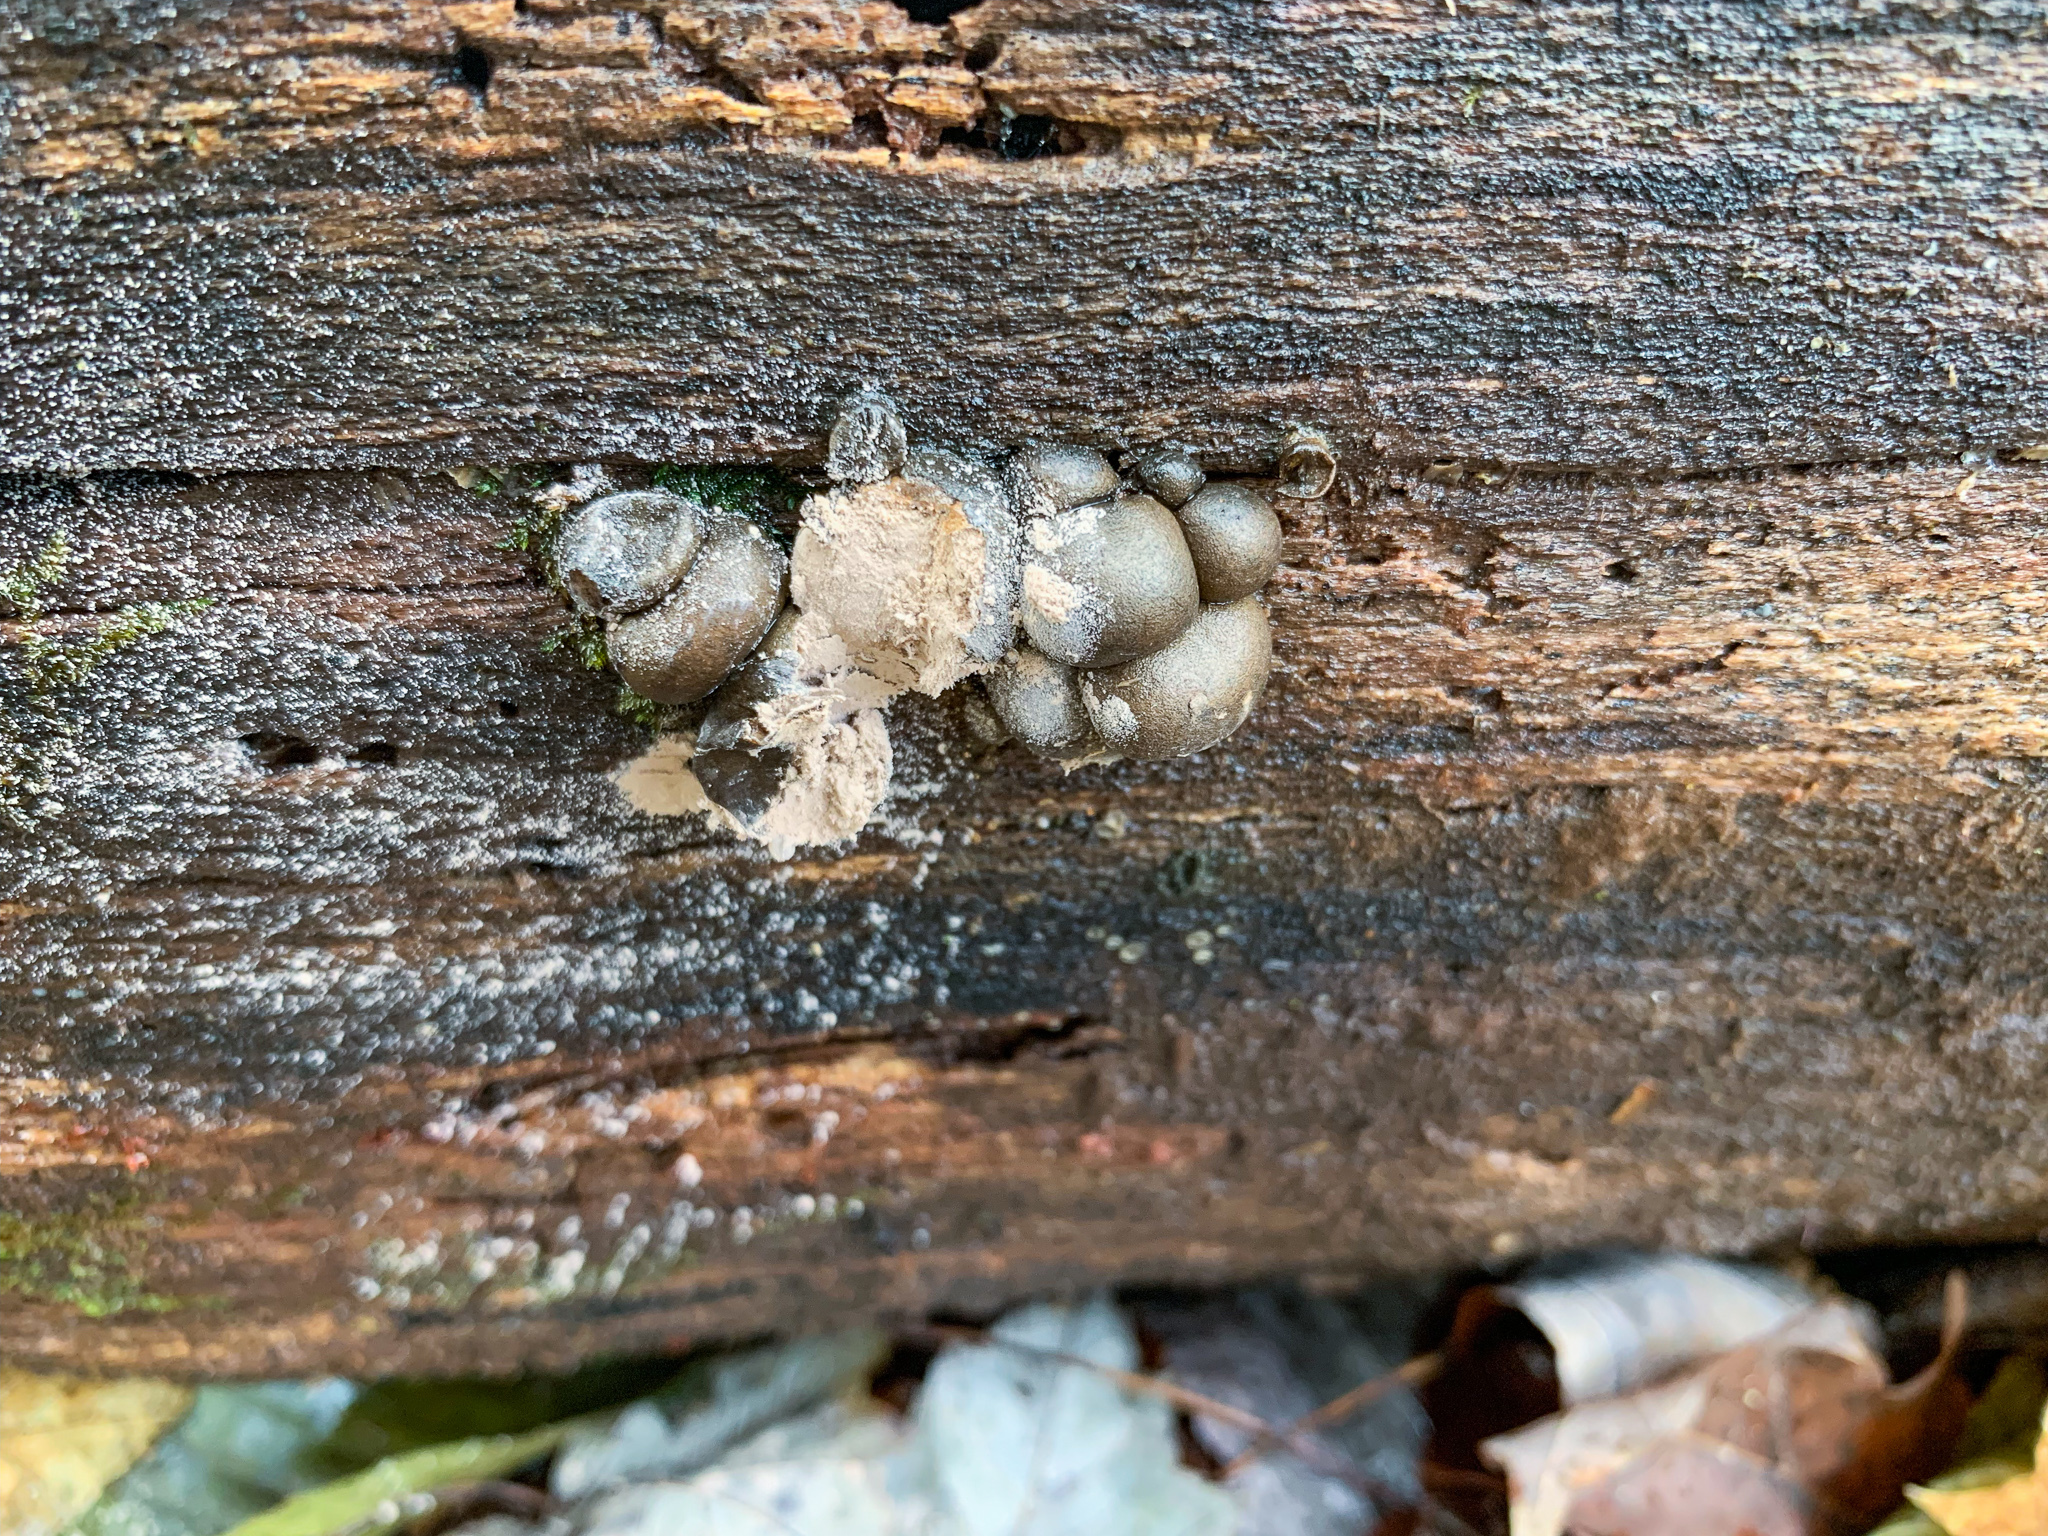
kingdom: Protozoa
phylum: Mycetozoa
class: Myxomycetes
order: Cribrariales
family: Tubiferaceae
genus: Lycogala
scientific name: Lycogala epidendrum
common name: Wolf's milk
